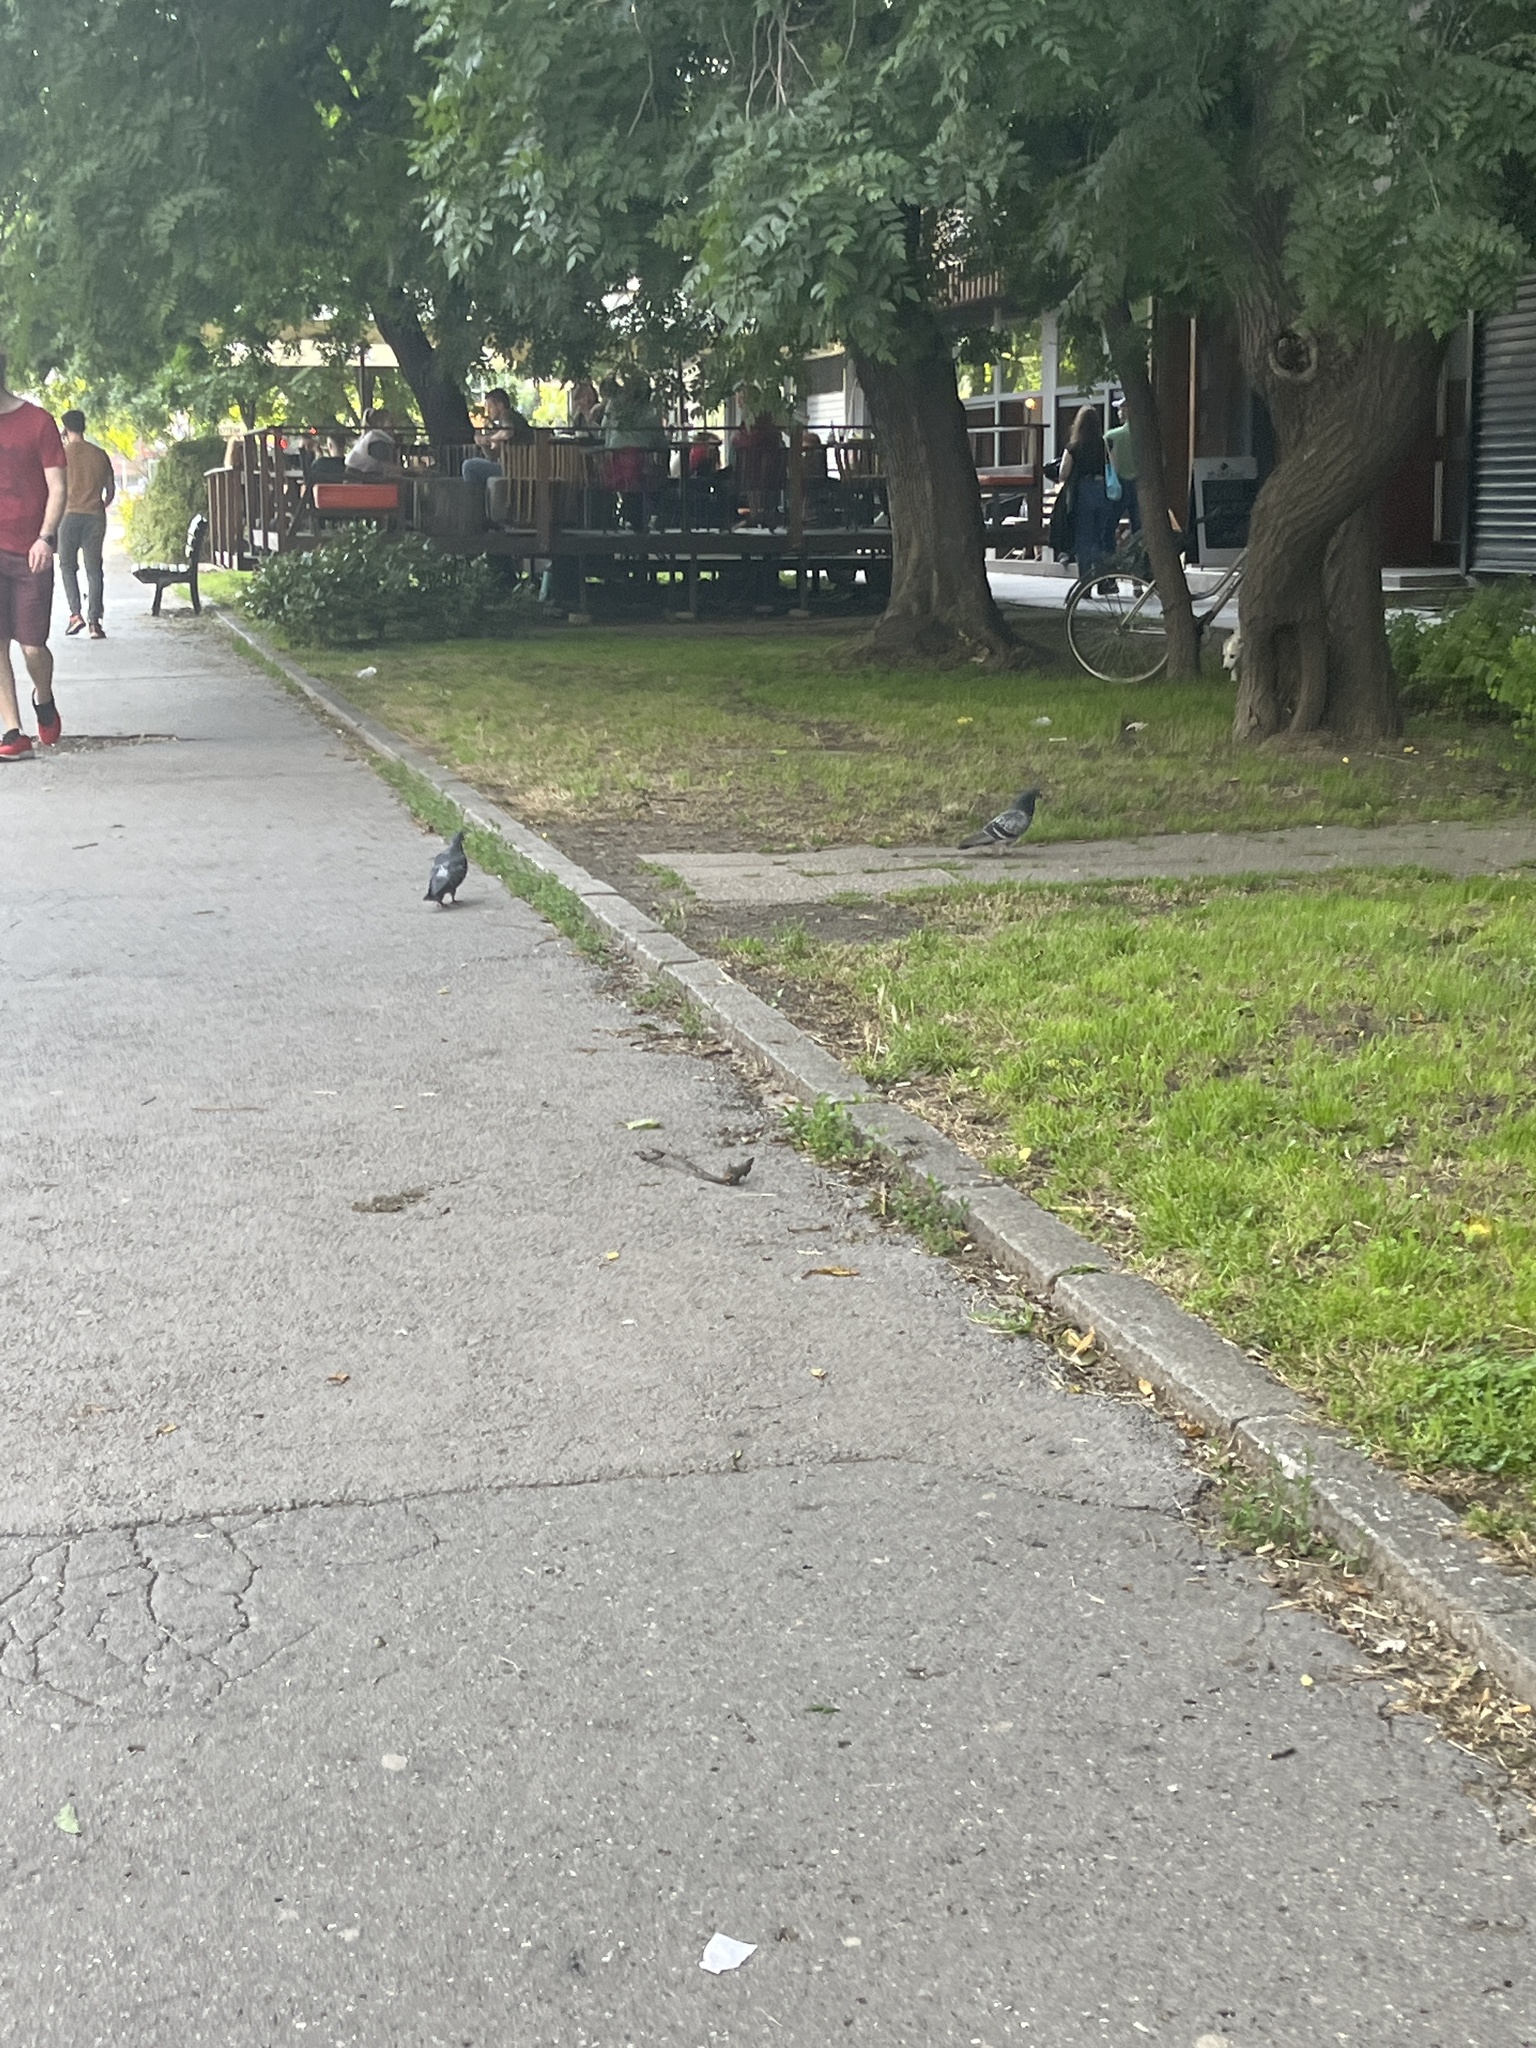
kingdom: Animalia
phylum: Chordata
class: Aves
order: Columbiformes
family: Columbidae
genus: Columba
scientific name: Columba livia
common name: Rock pigeon
